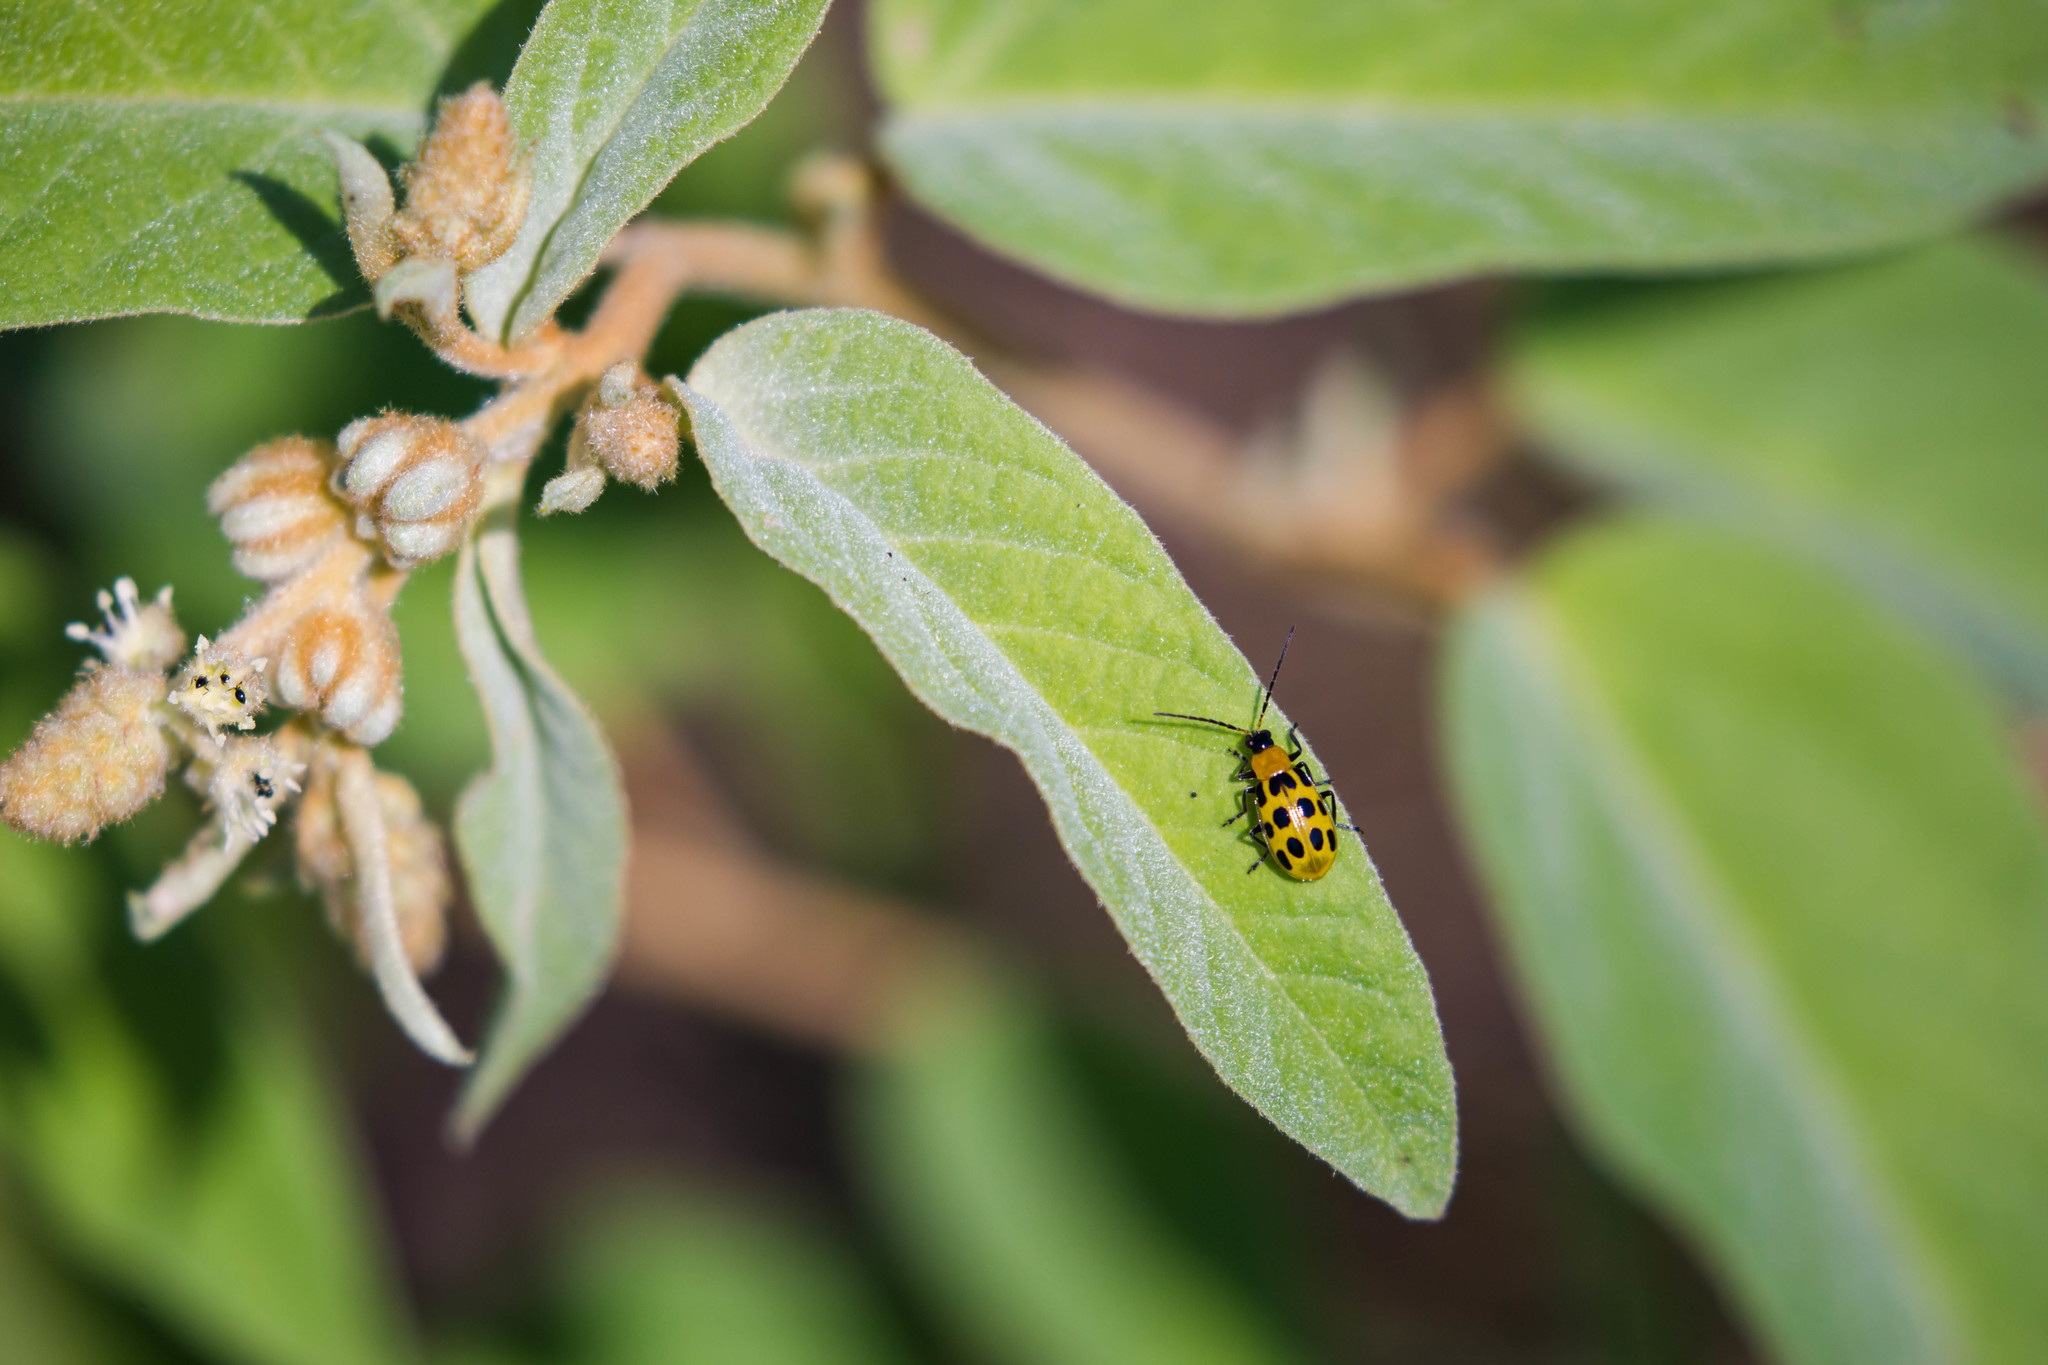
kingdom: Animalia
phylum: Arthropoda
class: Insecta
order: Coleoptera
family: Chrysomelidae
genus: Diabrotica
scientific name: Diabrotica undecimpunctata
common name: Spotted cucumber beetle
